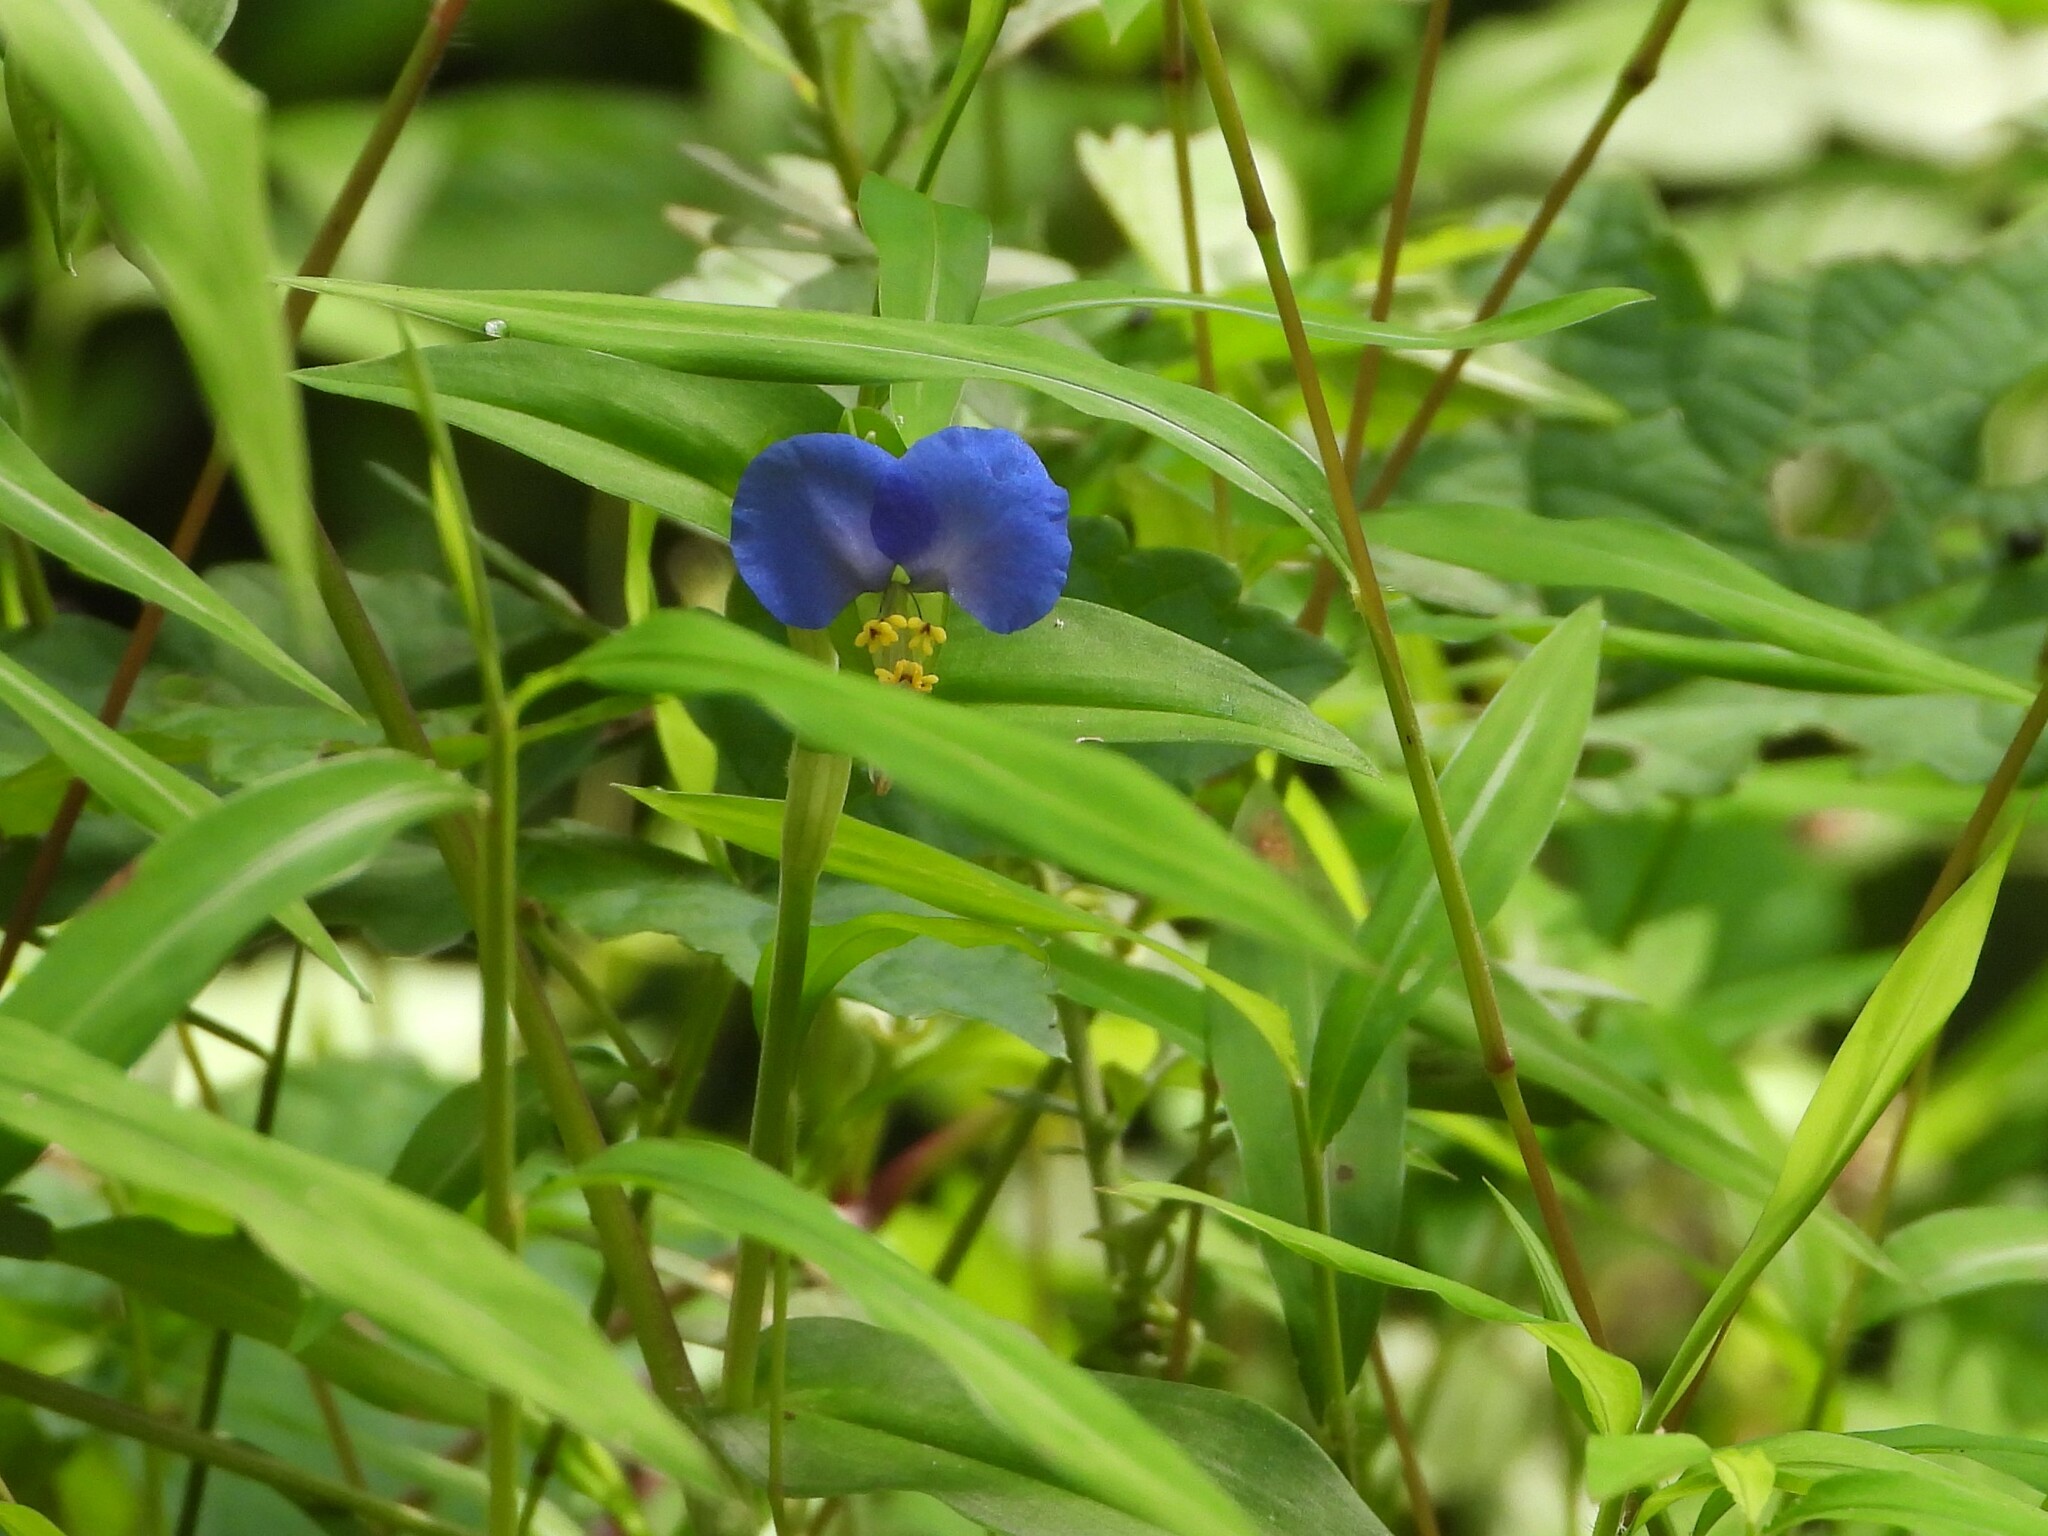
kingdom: Plantae
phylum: Tracheophyta
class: Liliopsida
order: Commelinales
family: Commelinaceae
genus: Commelina
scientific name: Commelina communis
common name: Asiatic dayflower
